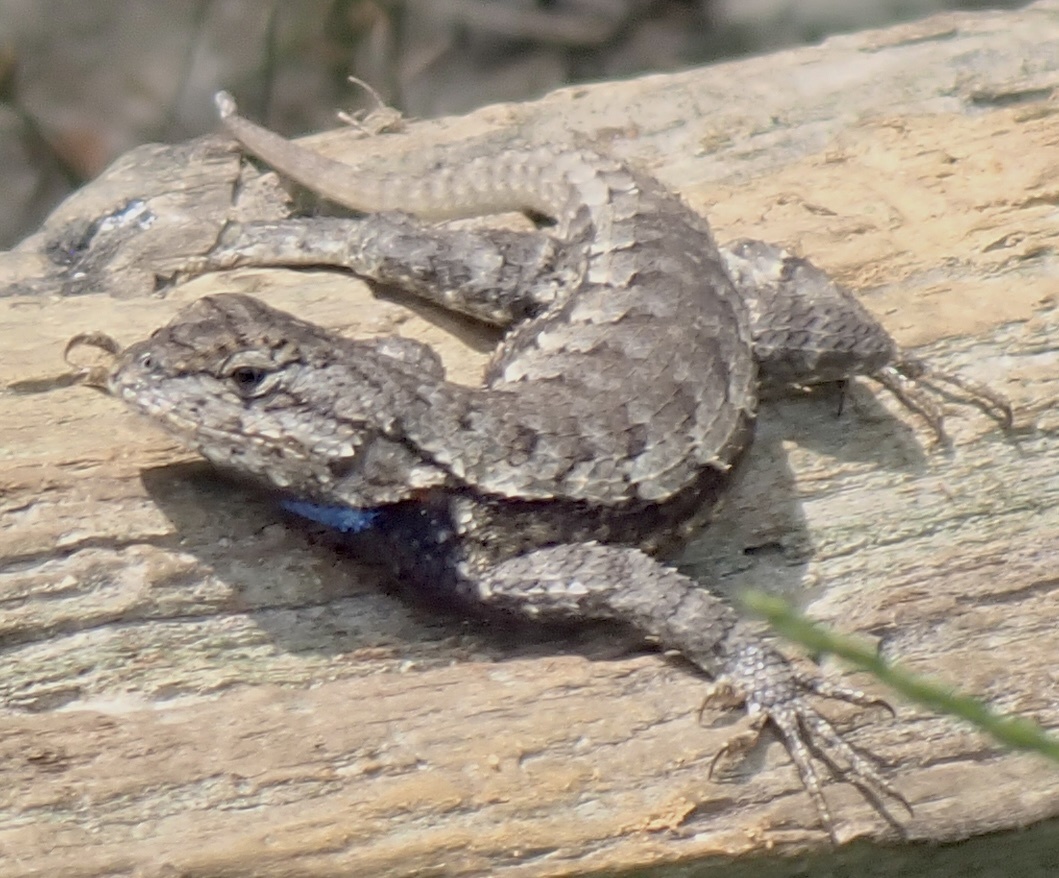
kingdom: Animalia
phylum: Chordata
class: Squamata
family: Phrynosomatidae
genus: Sceloporus
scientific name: Sceloporus undulatus
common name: Eastern fence lizard
